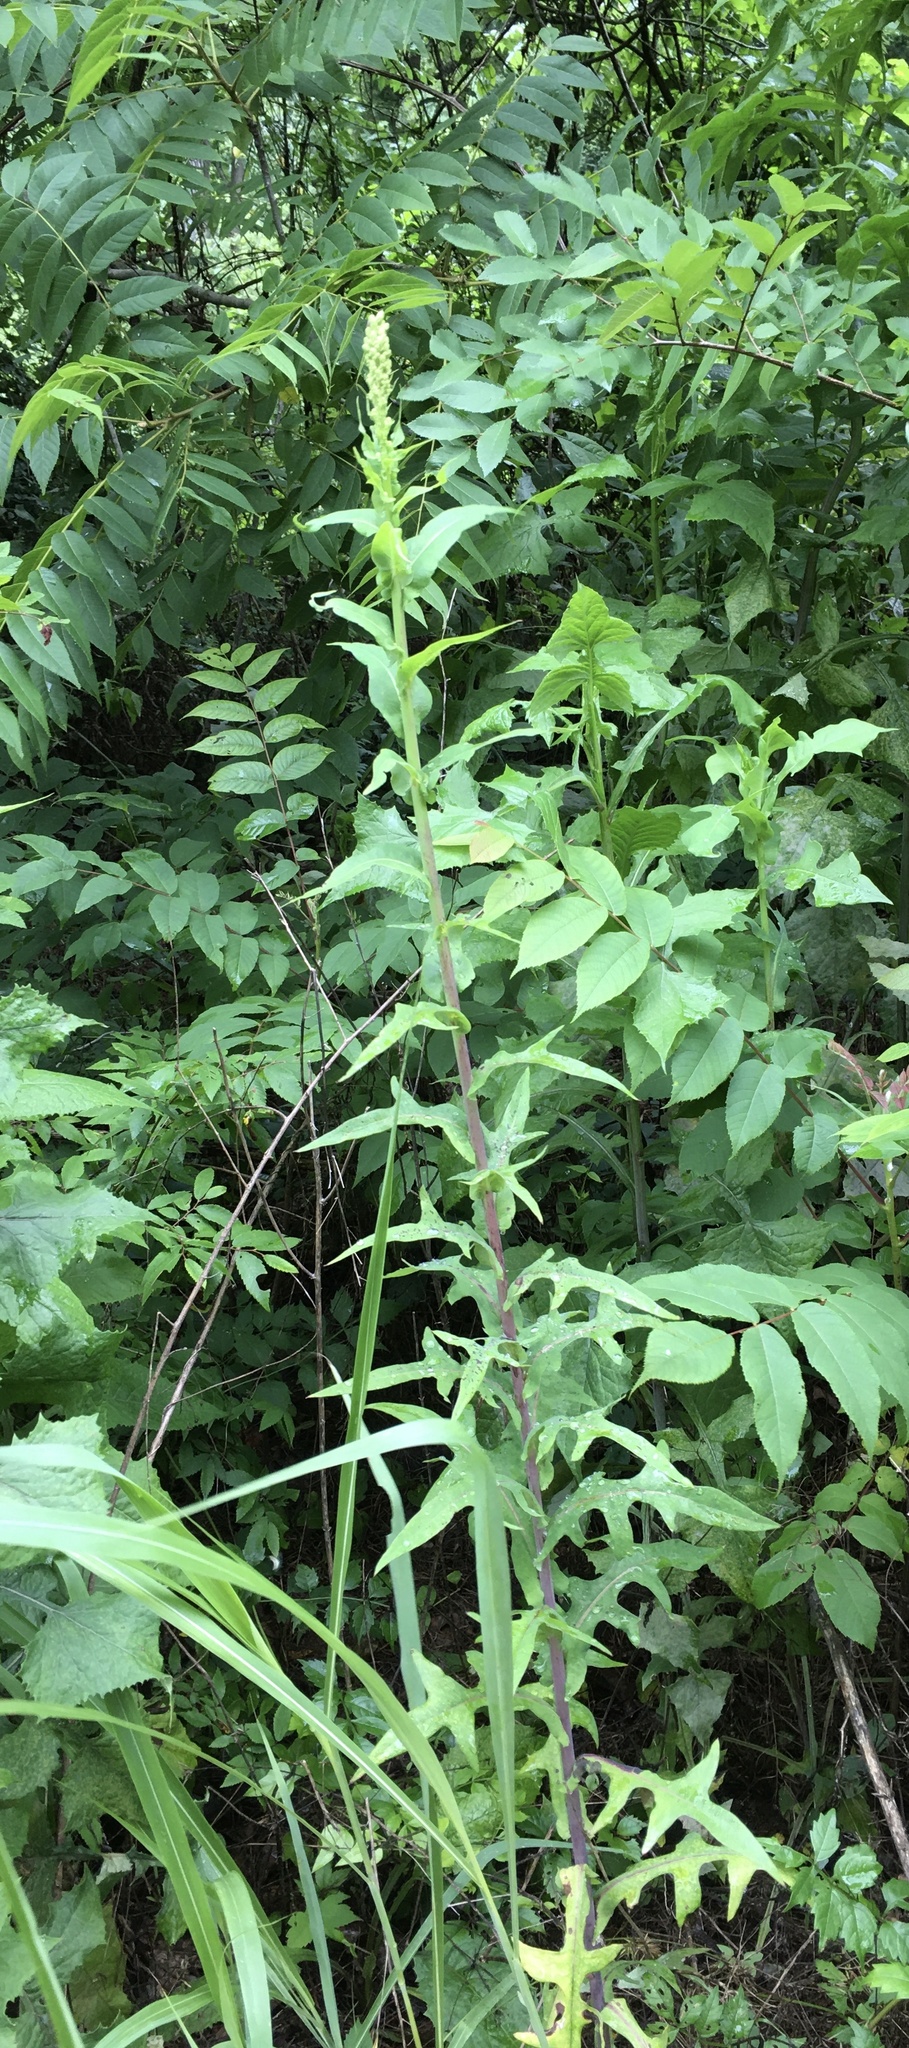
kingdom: Plantae
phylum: Tracheophyta
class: Magnoliopsida
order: Asterales
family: Asteraceae
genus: Lactuca
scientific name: Lactuca canadensis
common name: Canada lettuce
